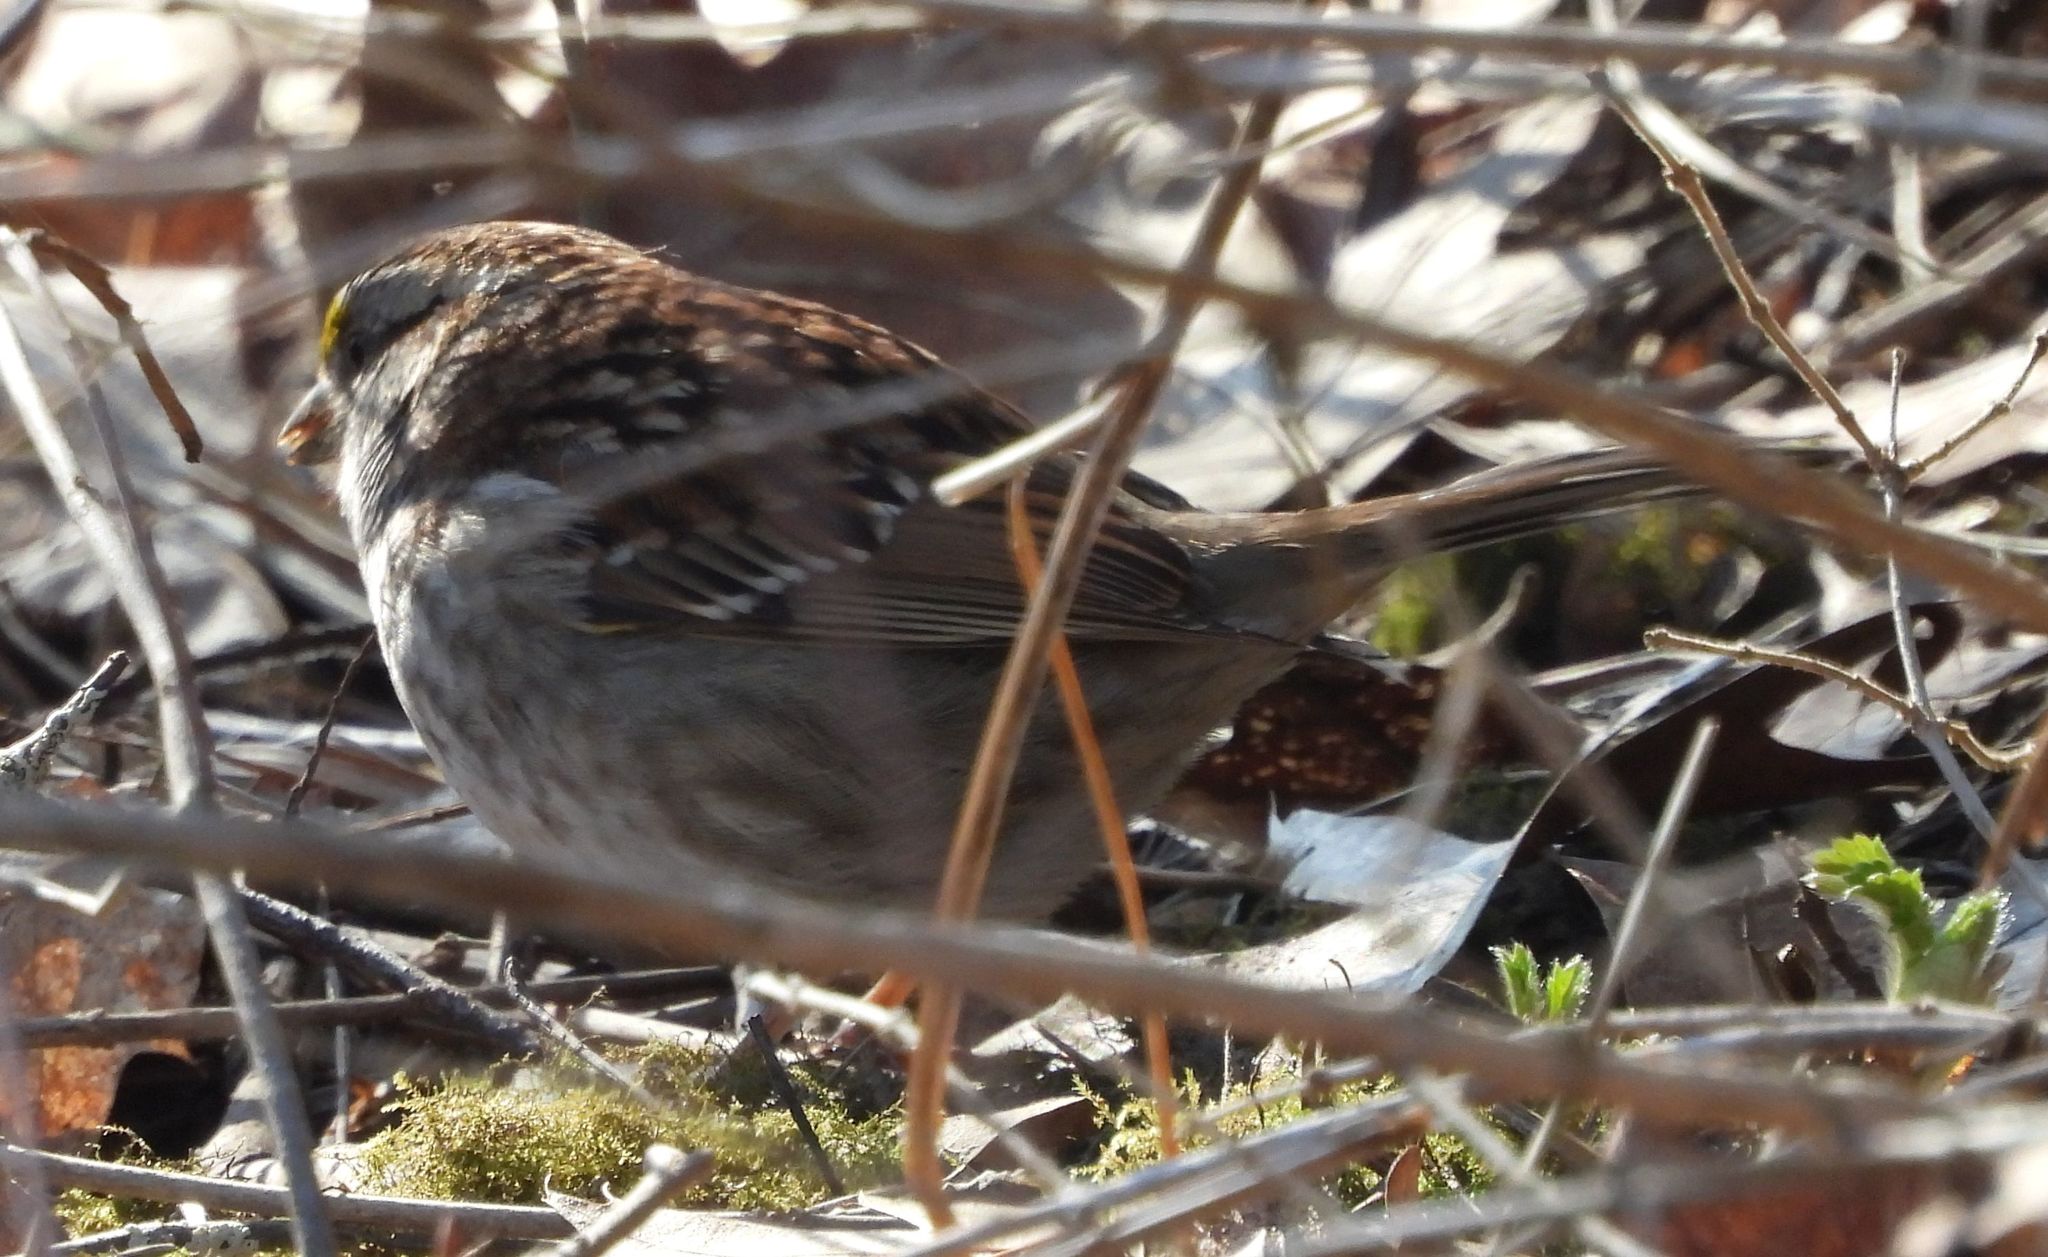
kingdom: Animalia
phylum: Chordata
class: Aves
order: Passeriformes
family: Passerellidae
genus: Zonotrichia
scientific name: Zonotrichia albicollis
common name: White-throated sparrow
